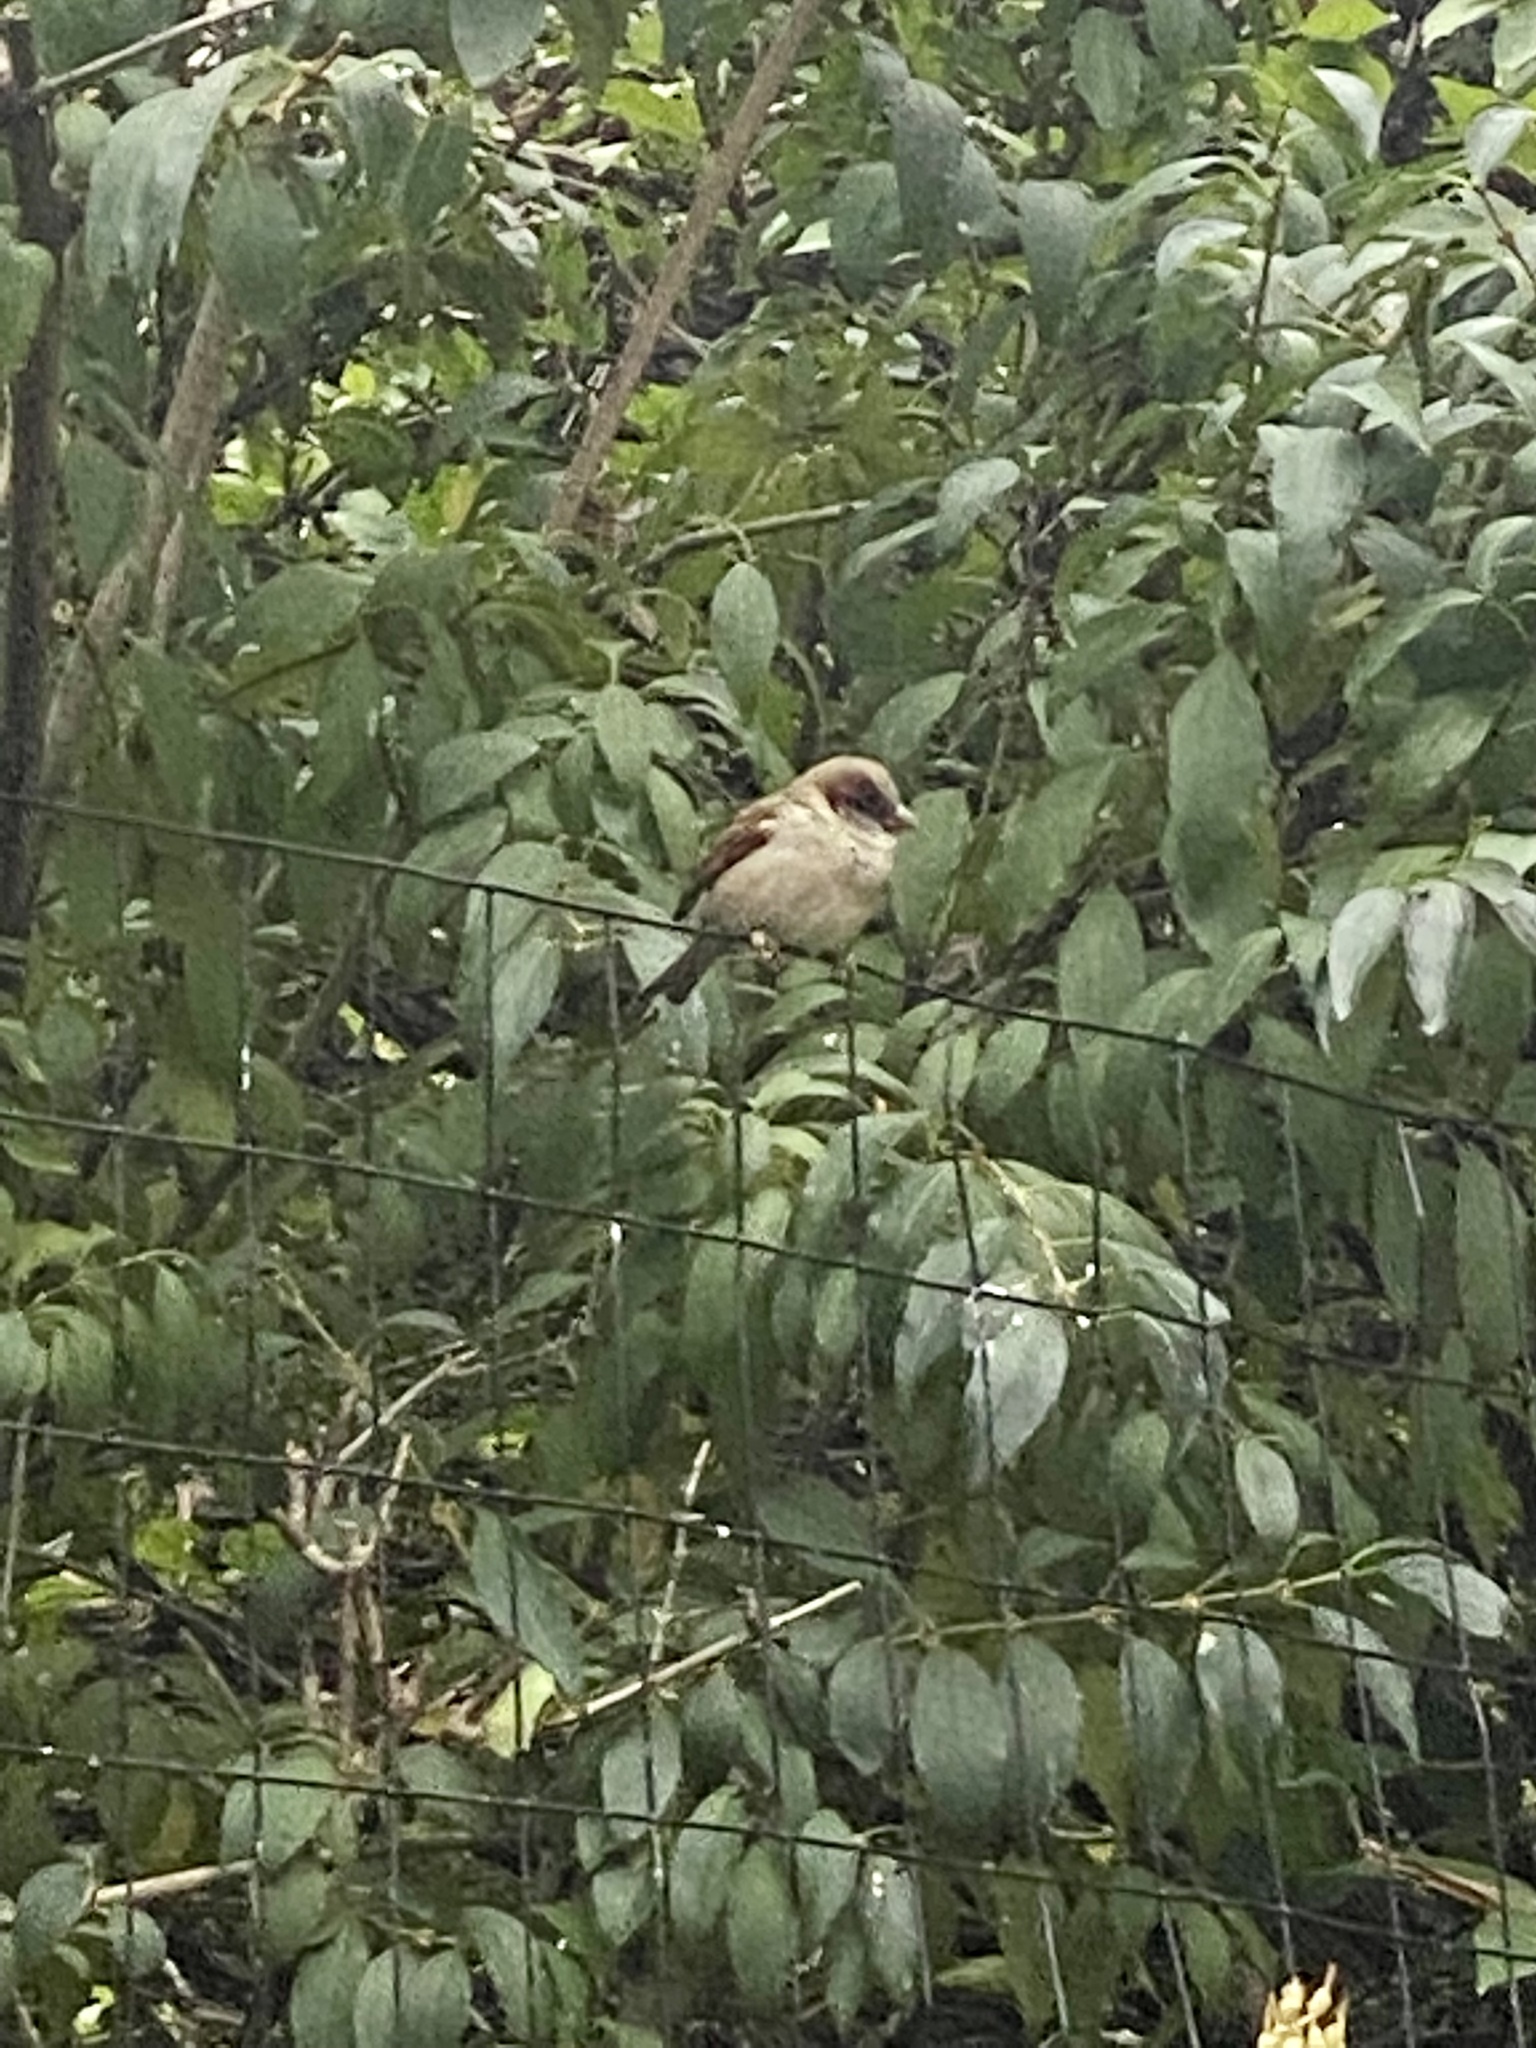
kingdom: Animalia
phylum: Chordata
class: Aves
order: Passeriformes
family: Passeridae
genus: Passer
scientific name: Passer domesticus
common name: House sparrow
